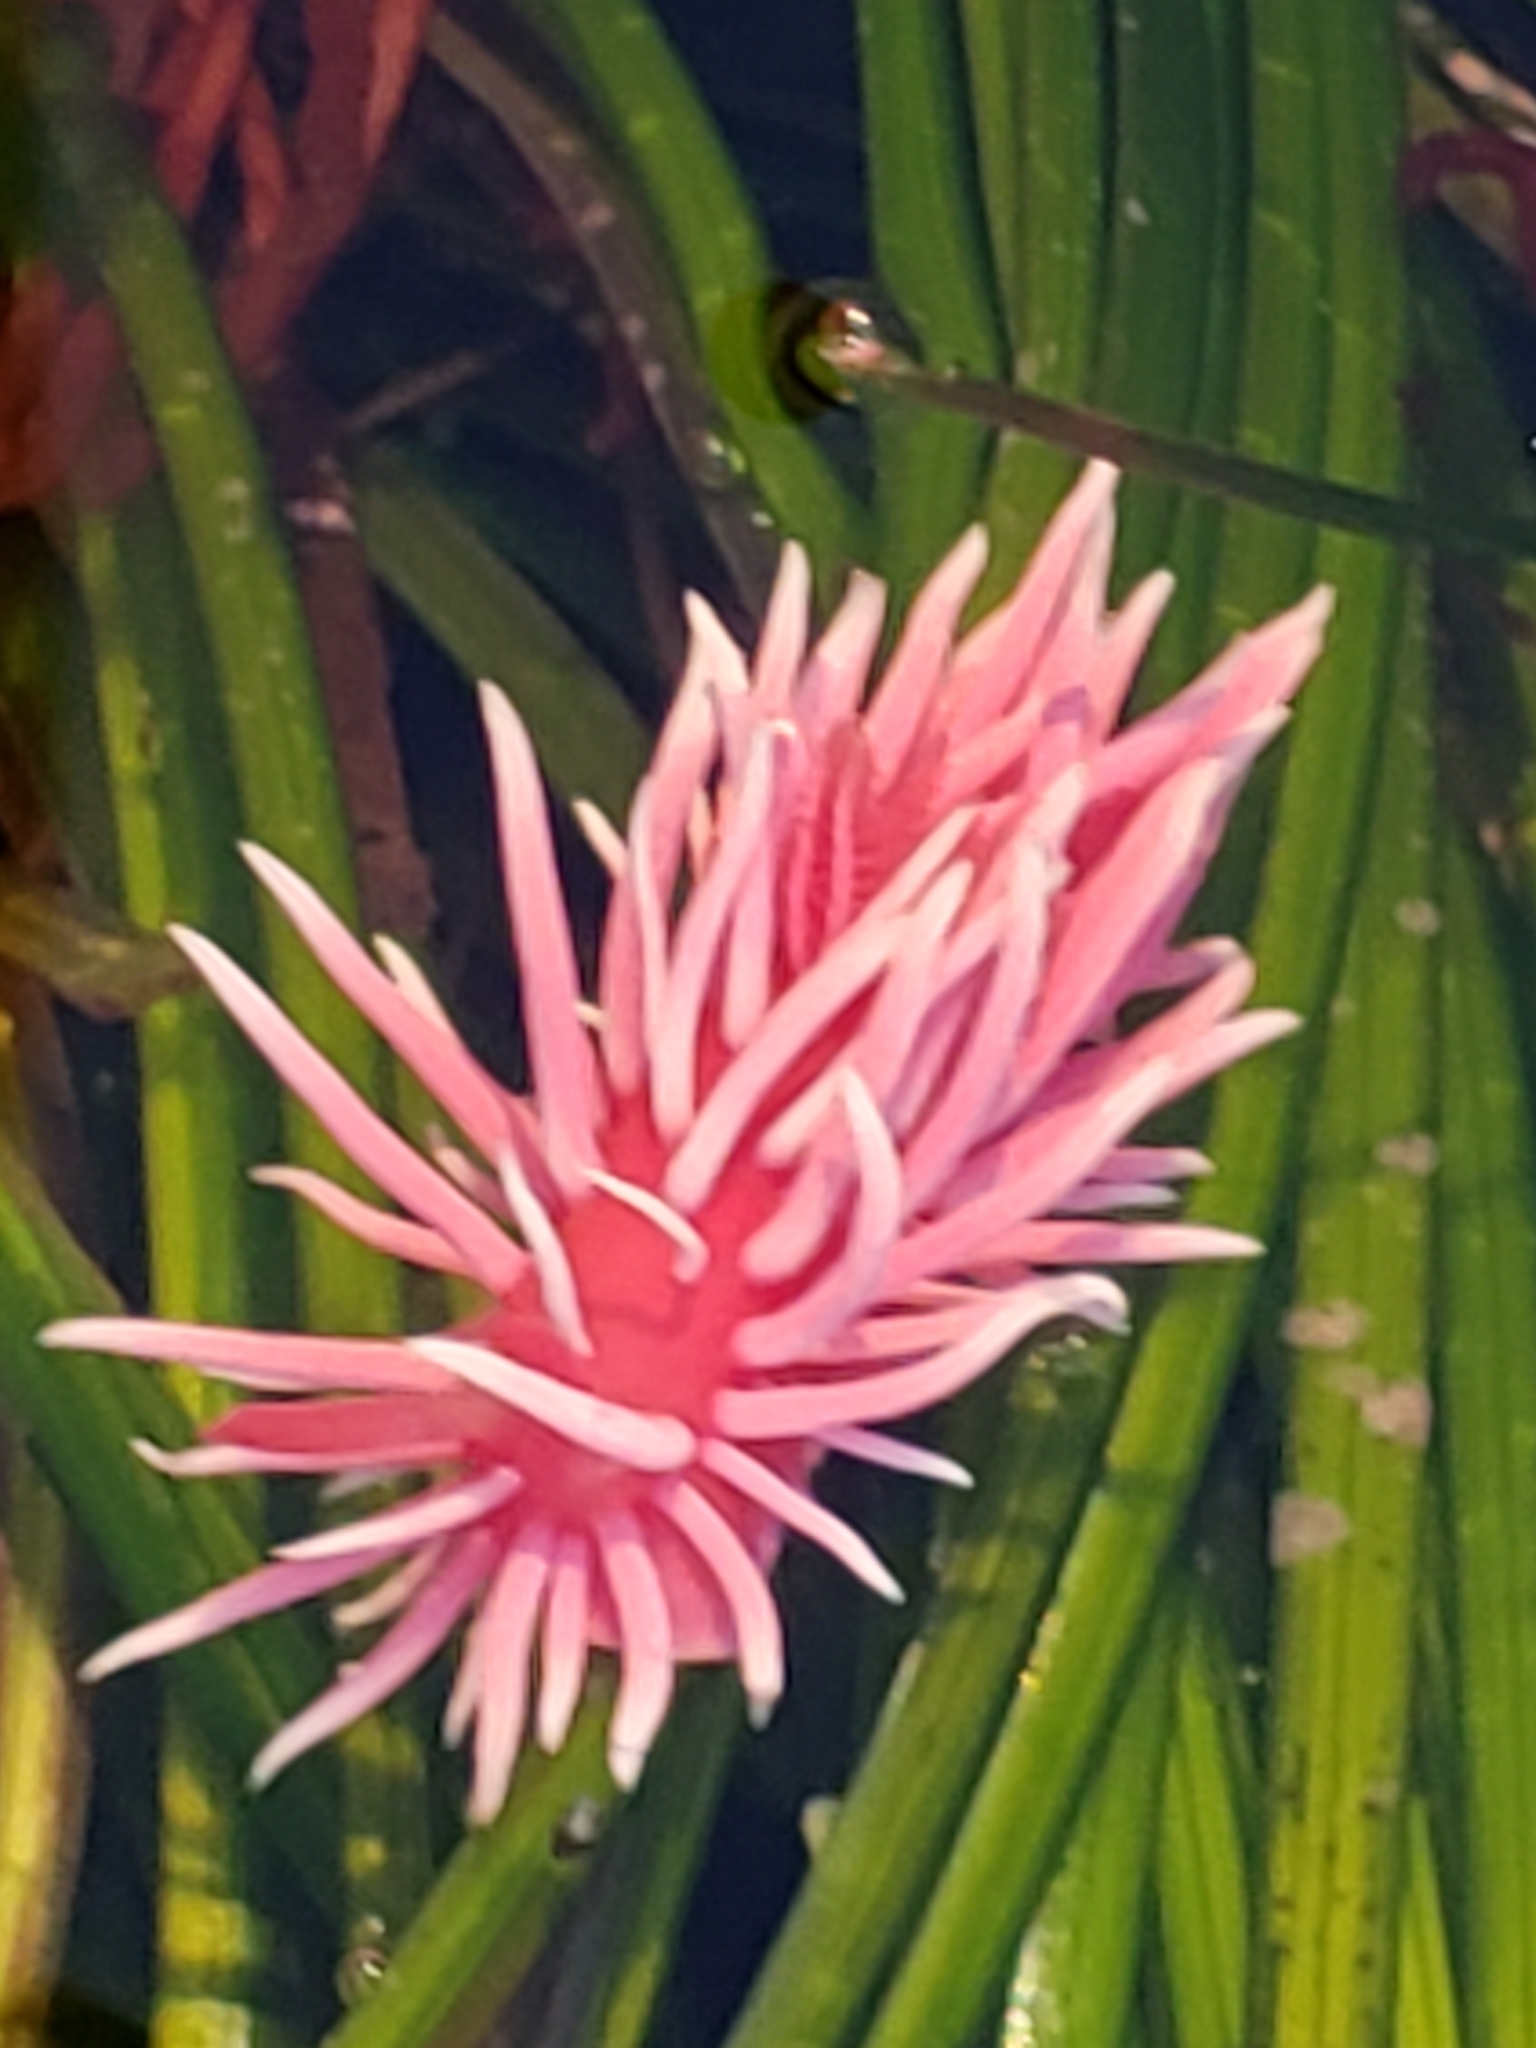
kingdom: Animalia
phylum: Mollusca
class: Gastropoda
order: Nudibranchia
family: Goniodorididae
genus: Okenia
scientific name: Okenia
